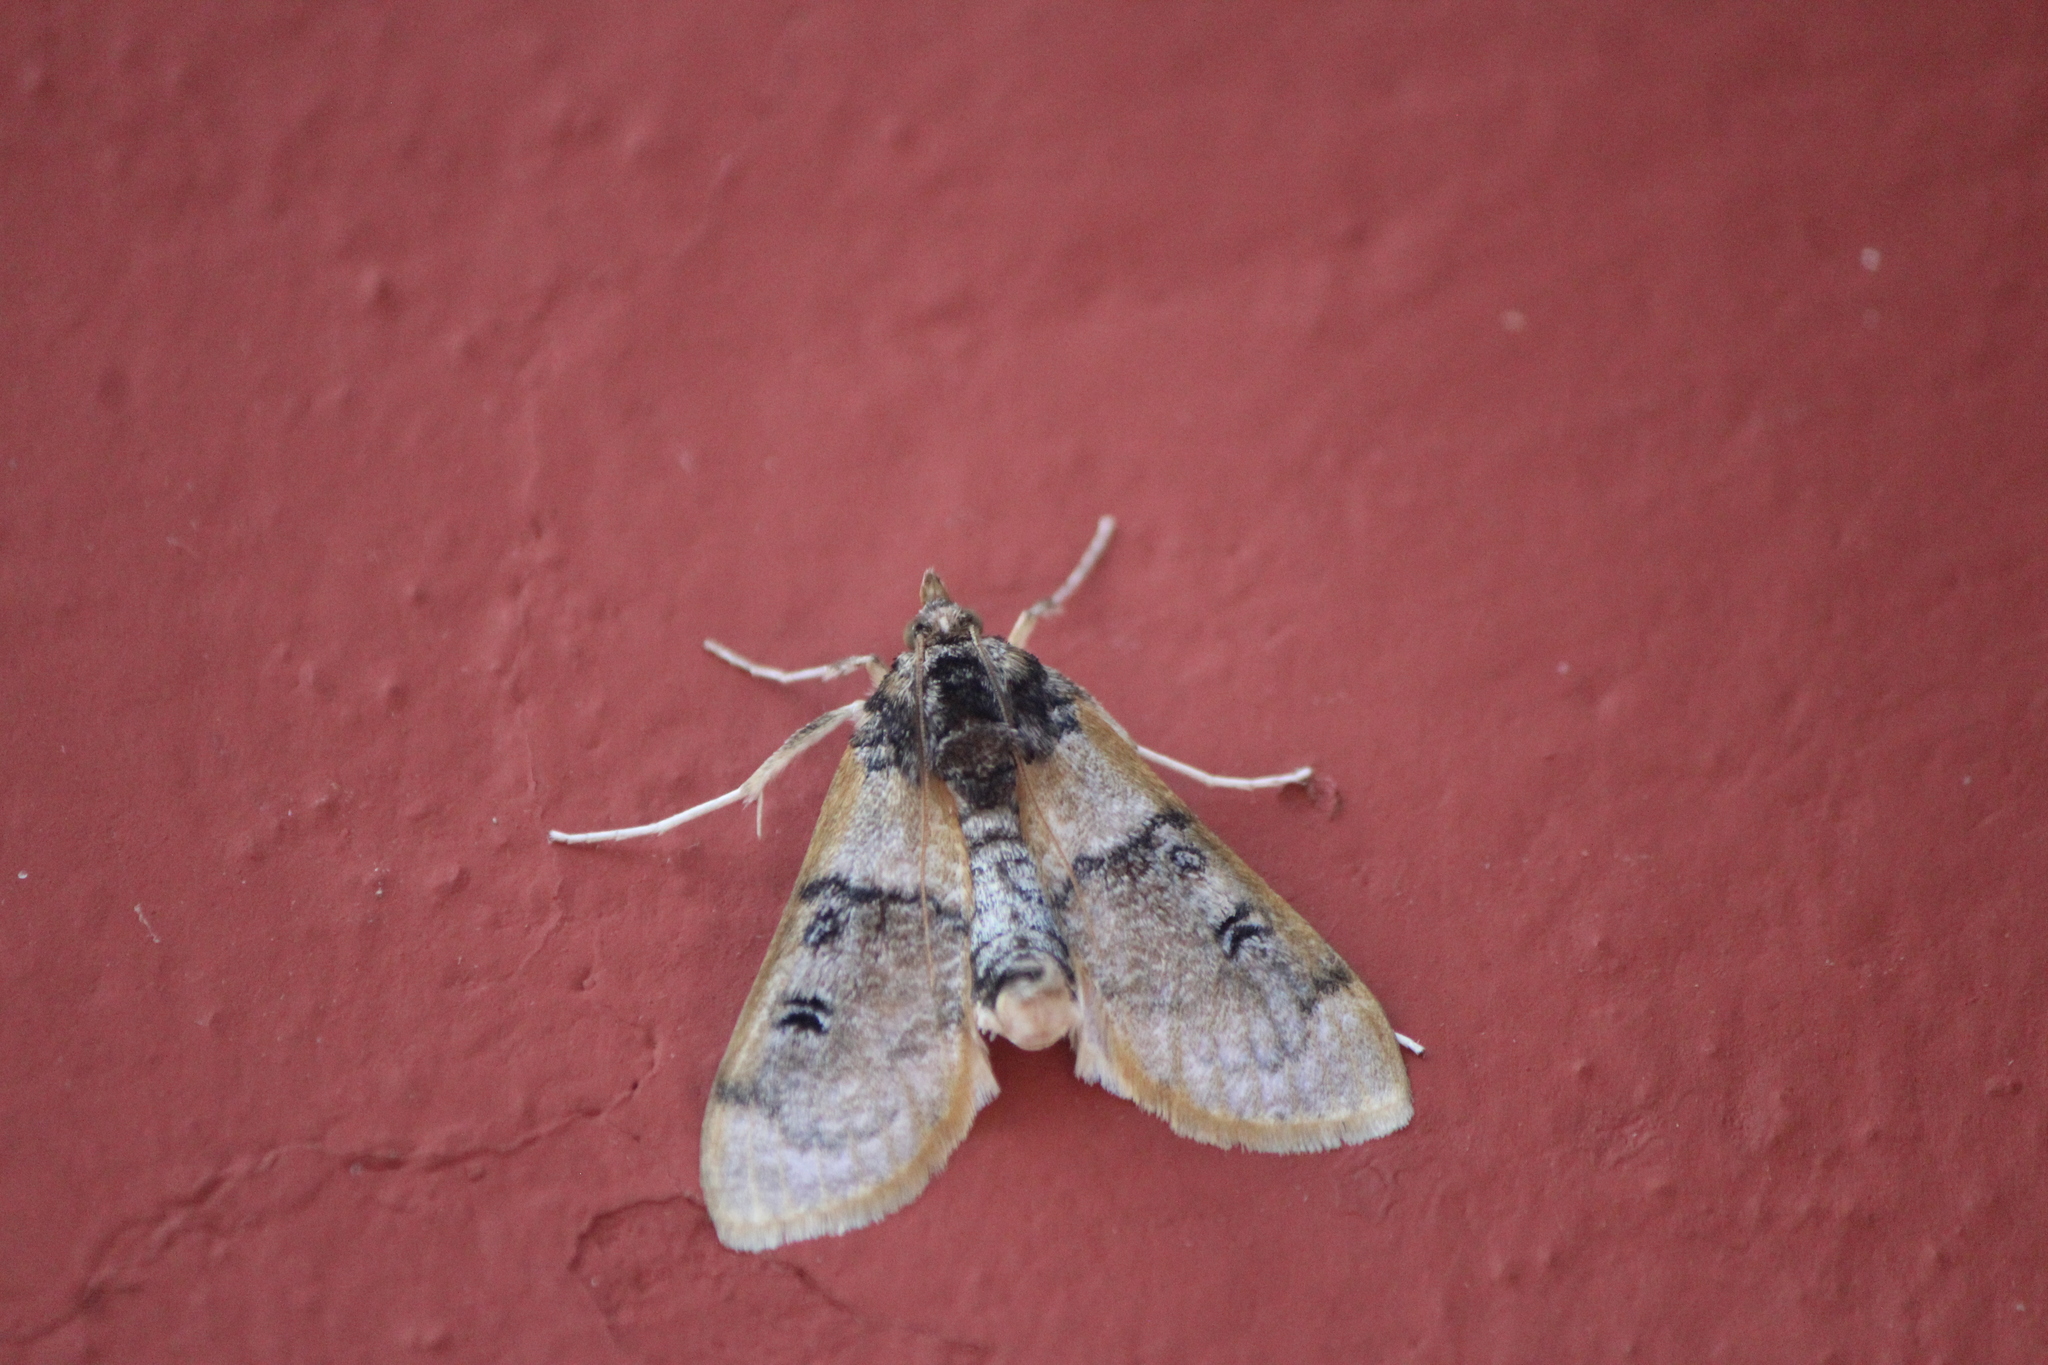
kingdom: Animalia
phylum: Arthropoda
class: Insecta
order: Lepidoptera
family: Crambidae
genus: Laniifera
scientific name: Laniifera cyclades
